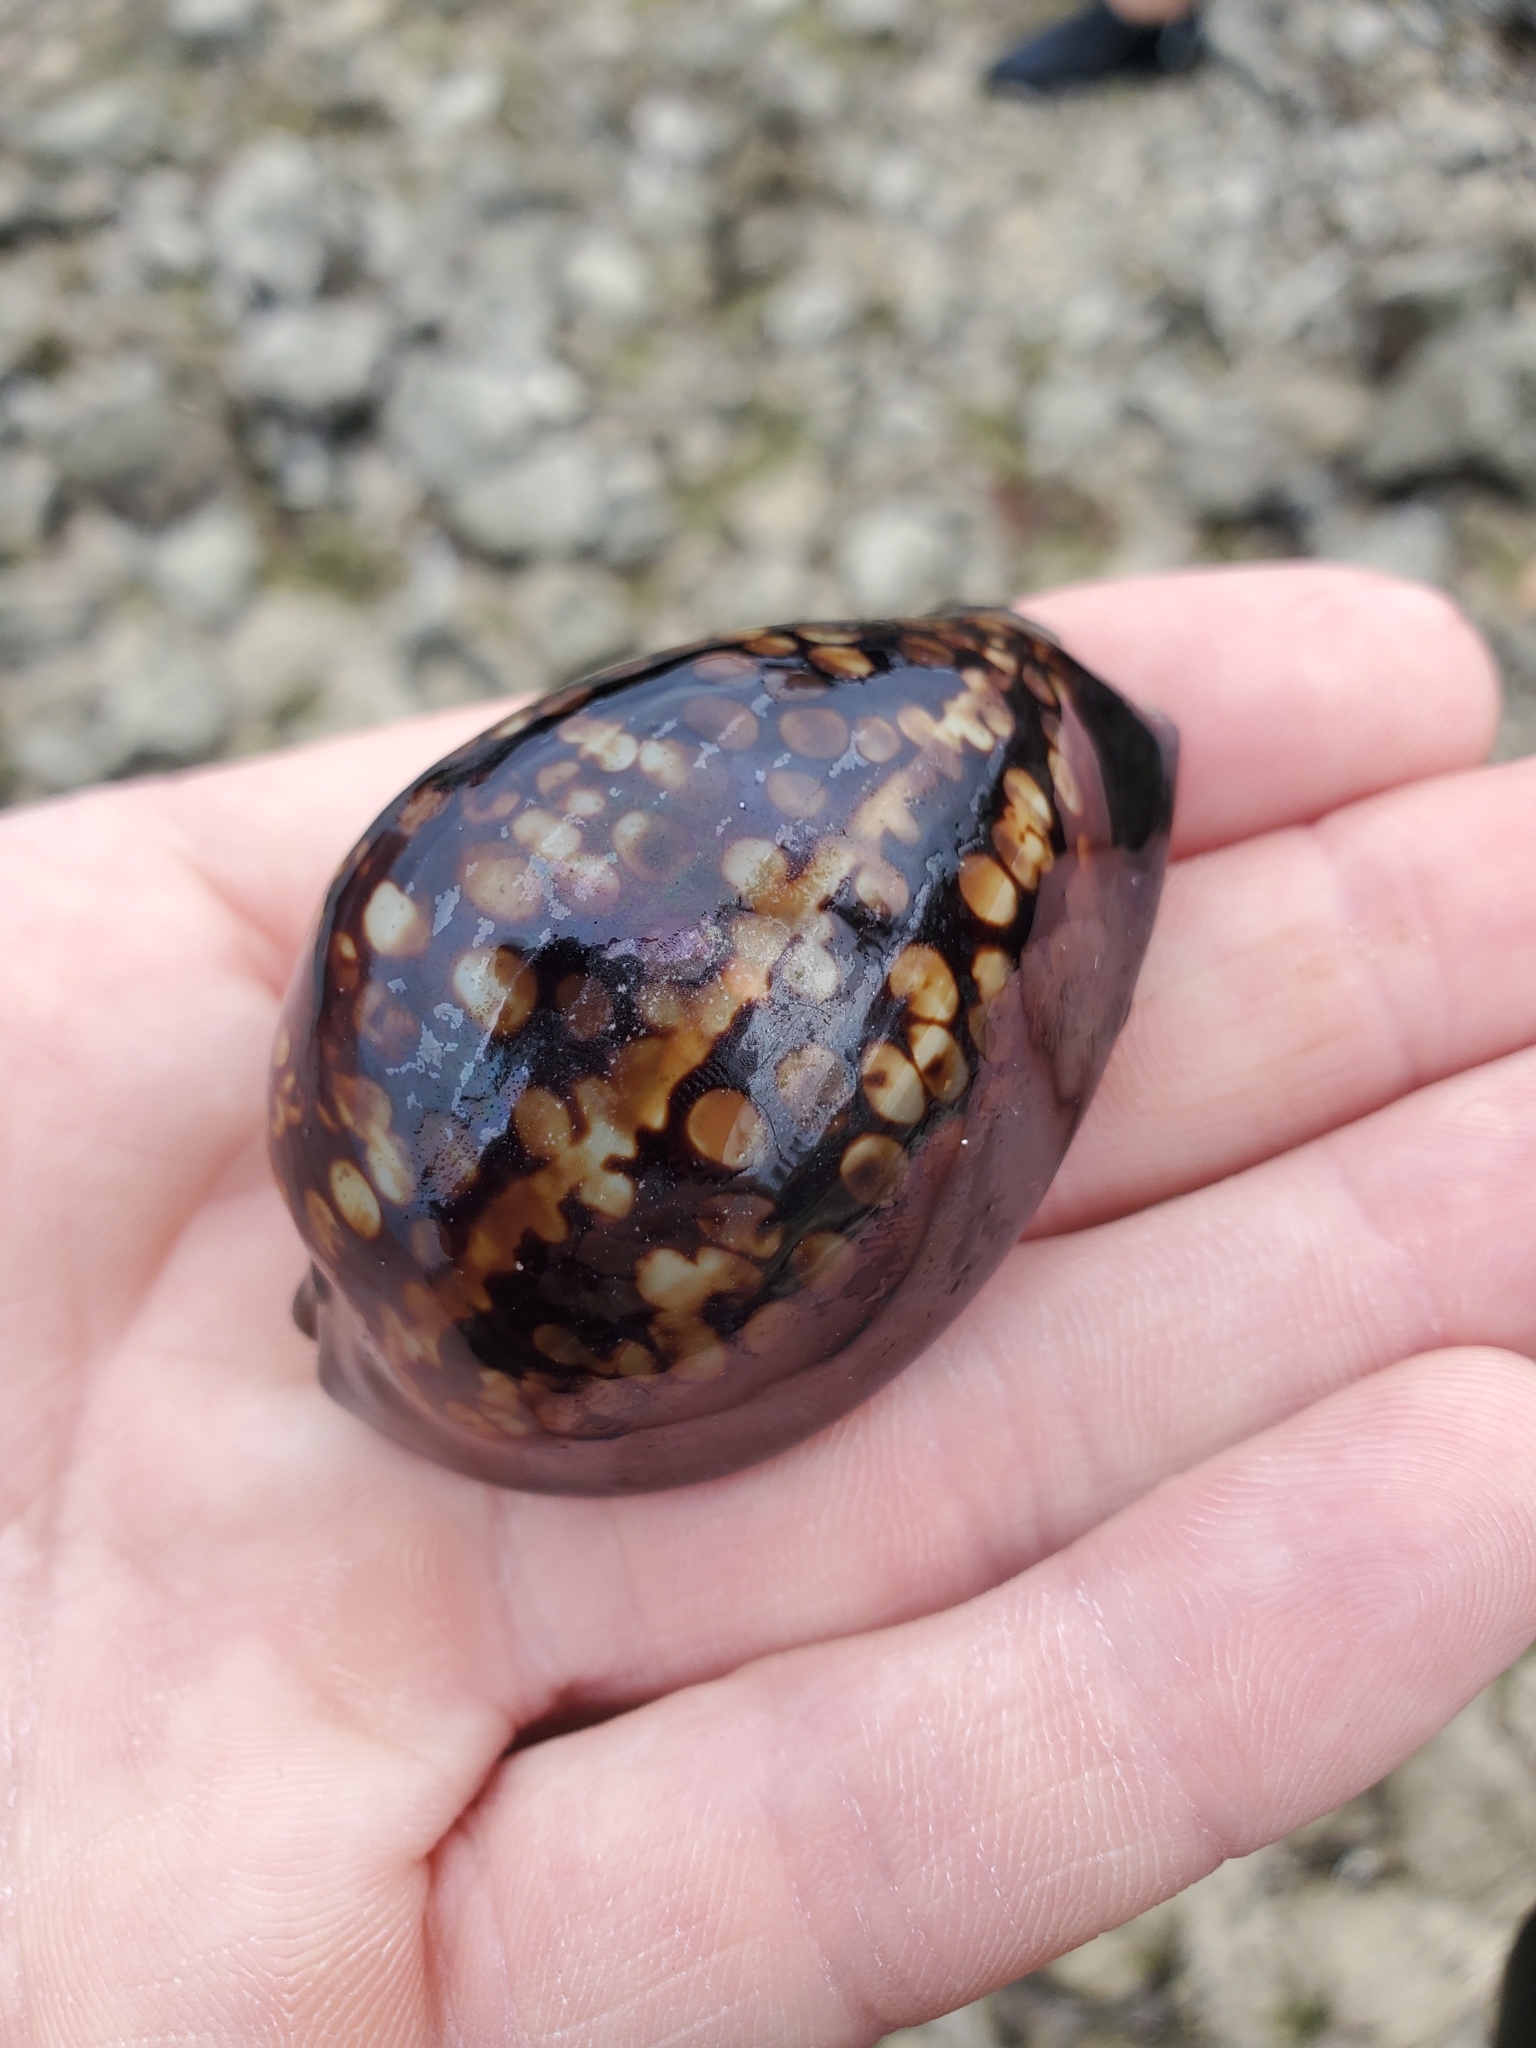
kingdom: Animalia
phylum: Mollusca
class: Gastropoda
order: Littorinimorpha
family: Cypraeidae
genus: Mauritia
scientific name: Mauritia mauritiana
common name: Hump-backed cowrie
